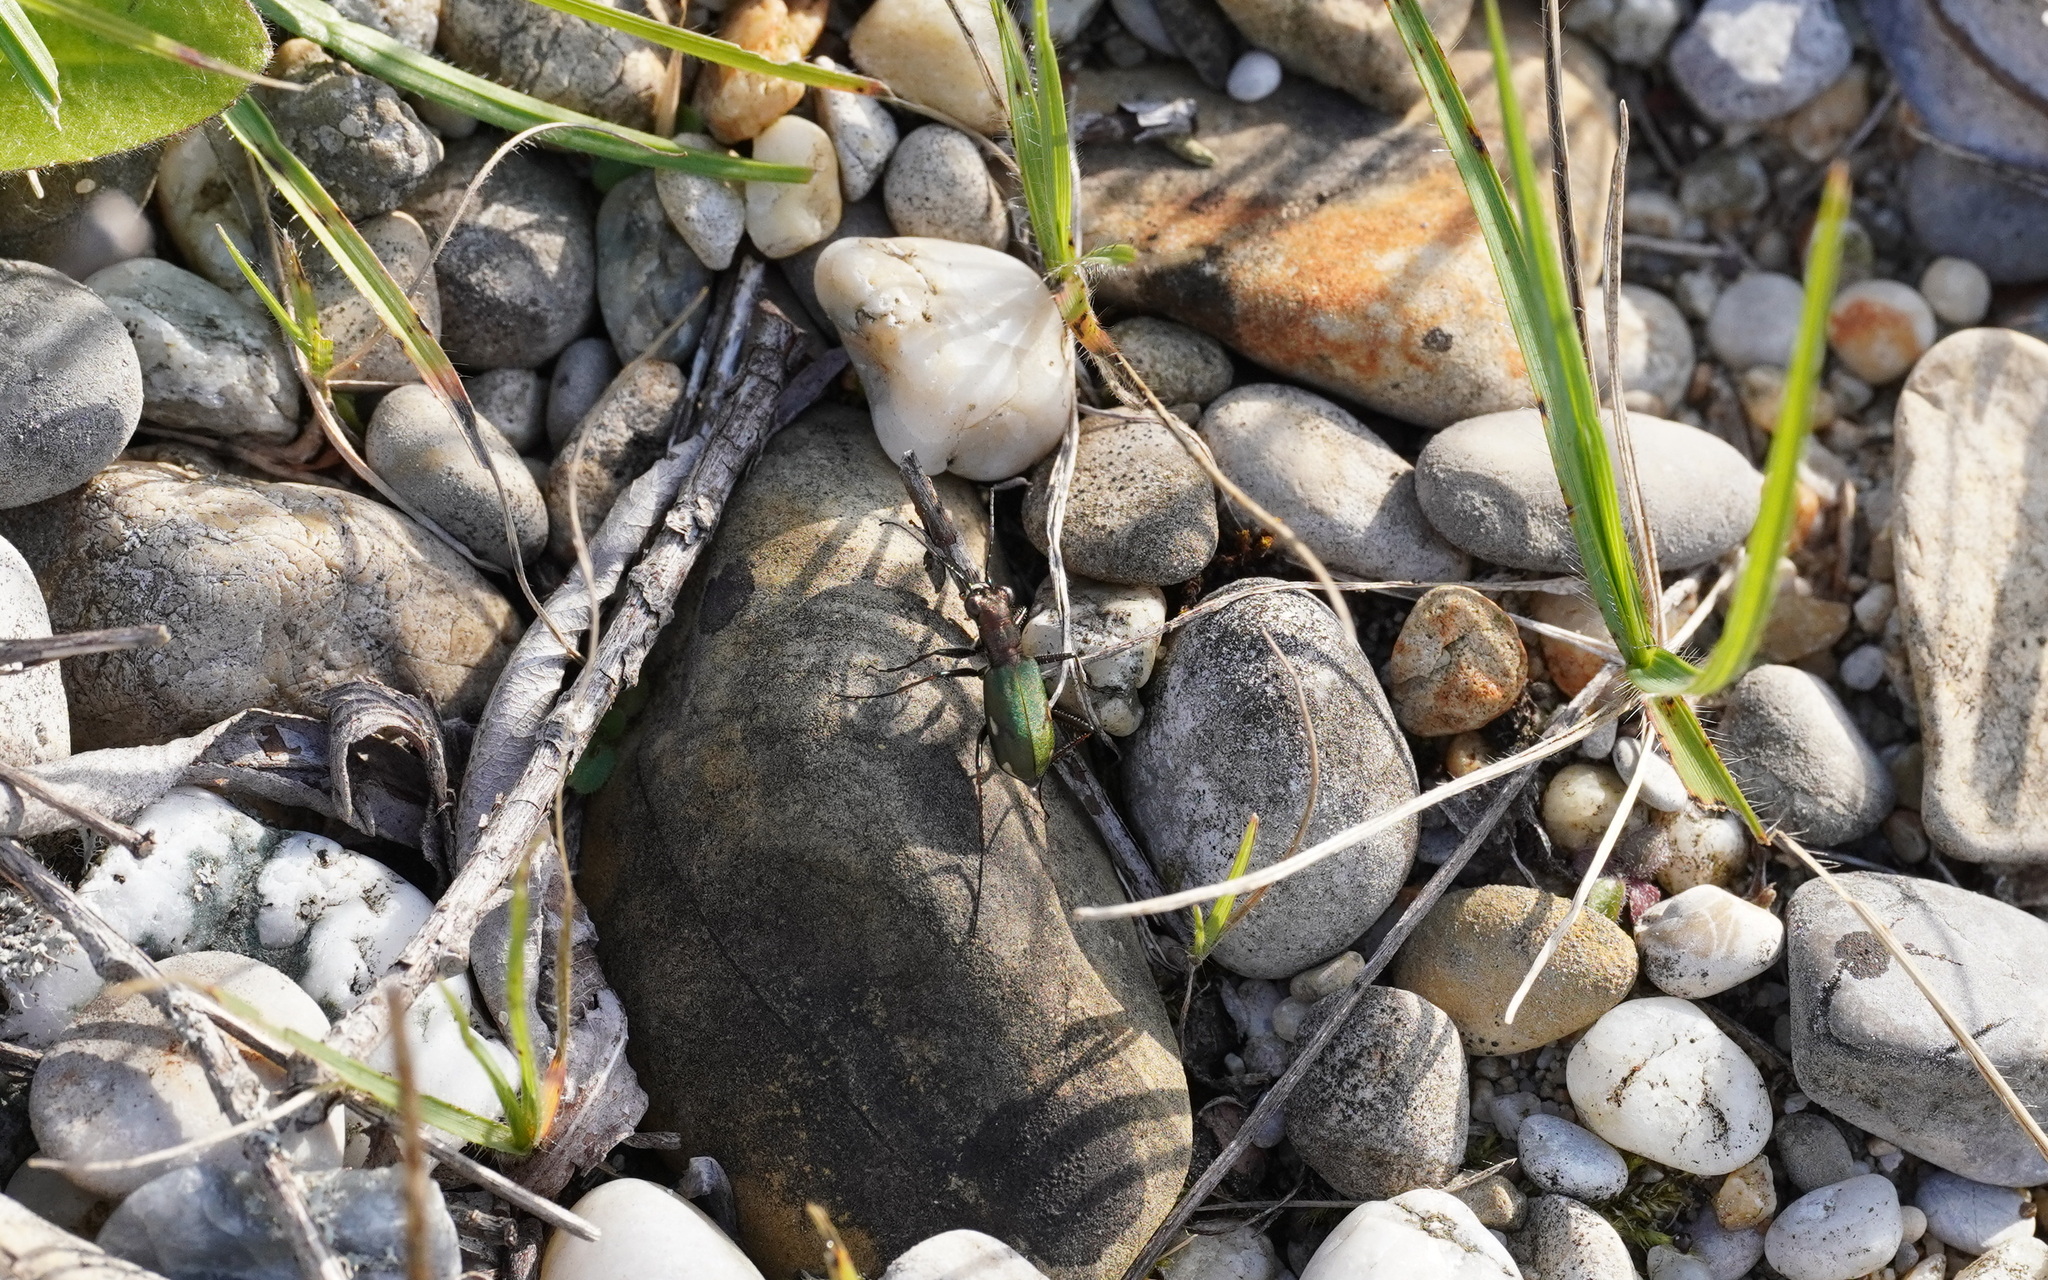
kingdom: Animalia
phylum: Arthropoda
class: Insecta
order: Coleoptera
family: Carabidae
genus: Cylindera
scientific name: Cylindera germanica
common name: Cliff tiger beetle
